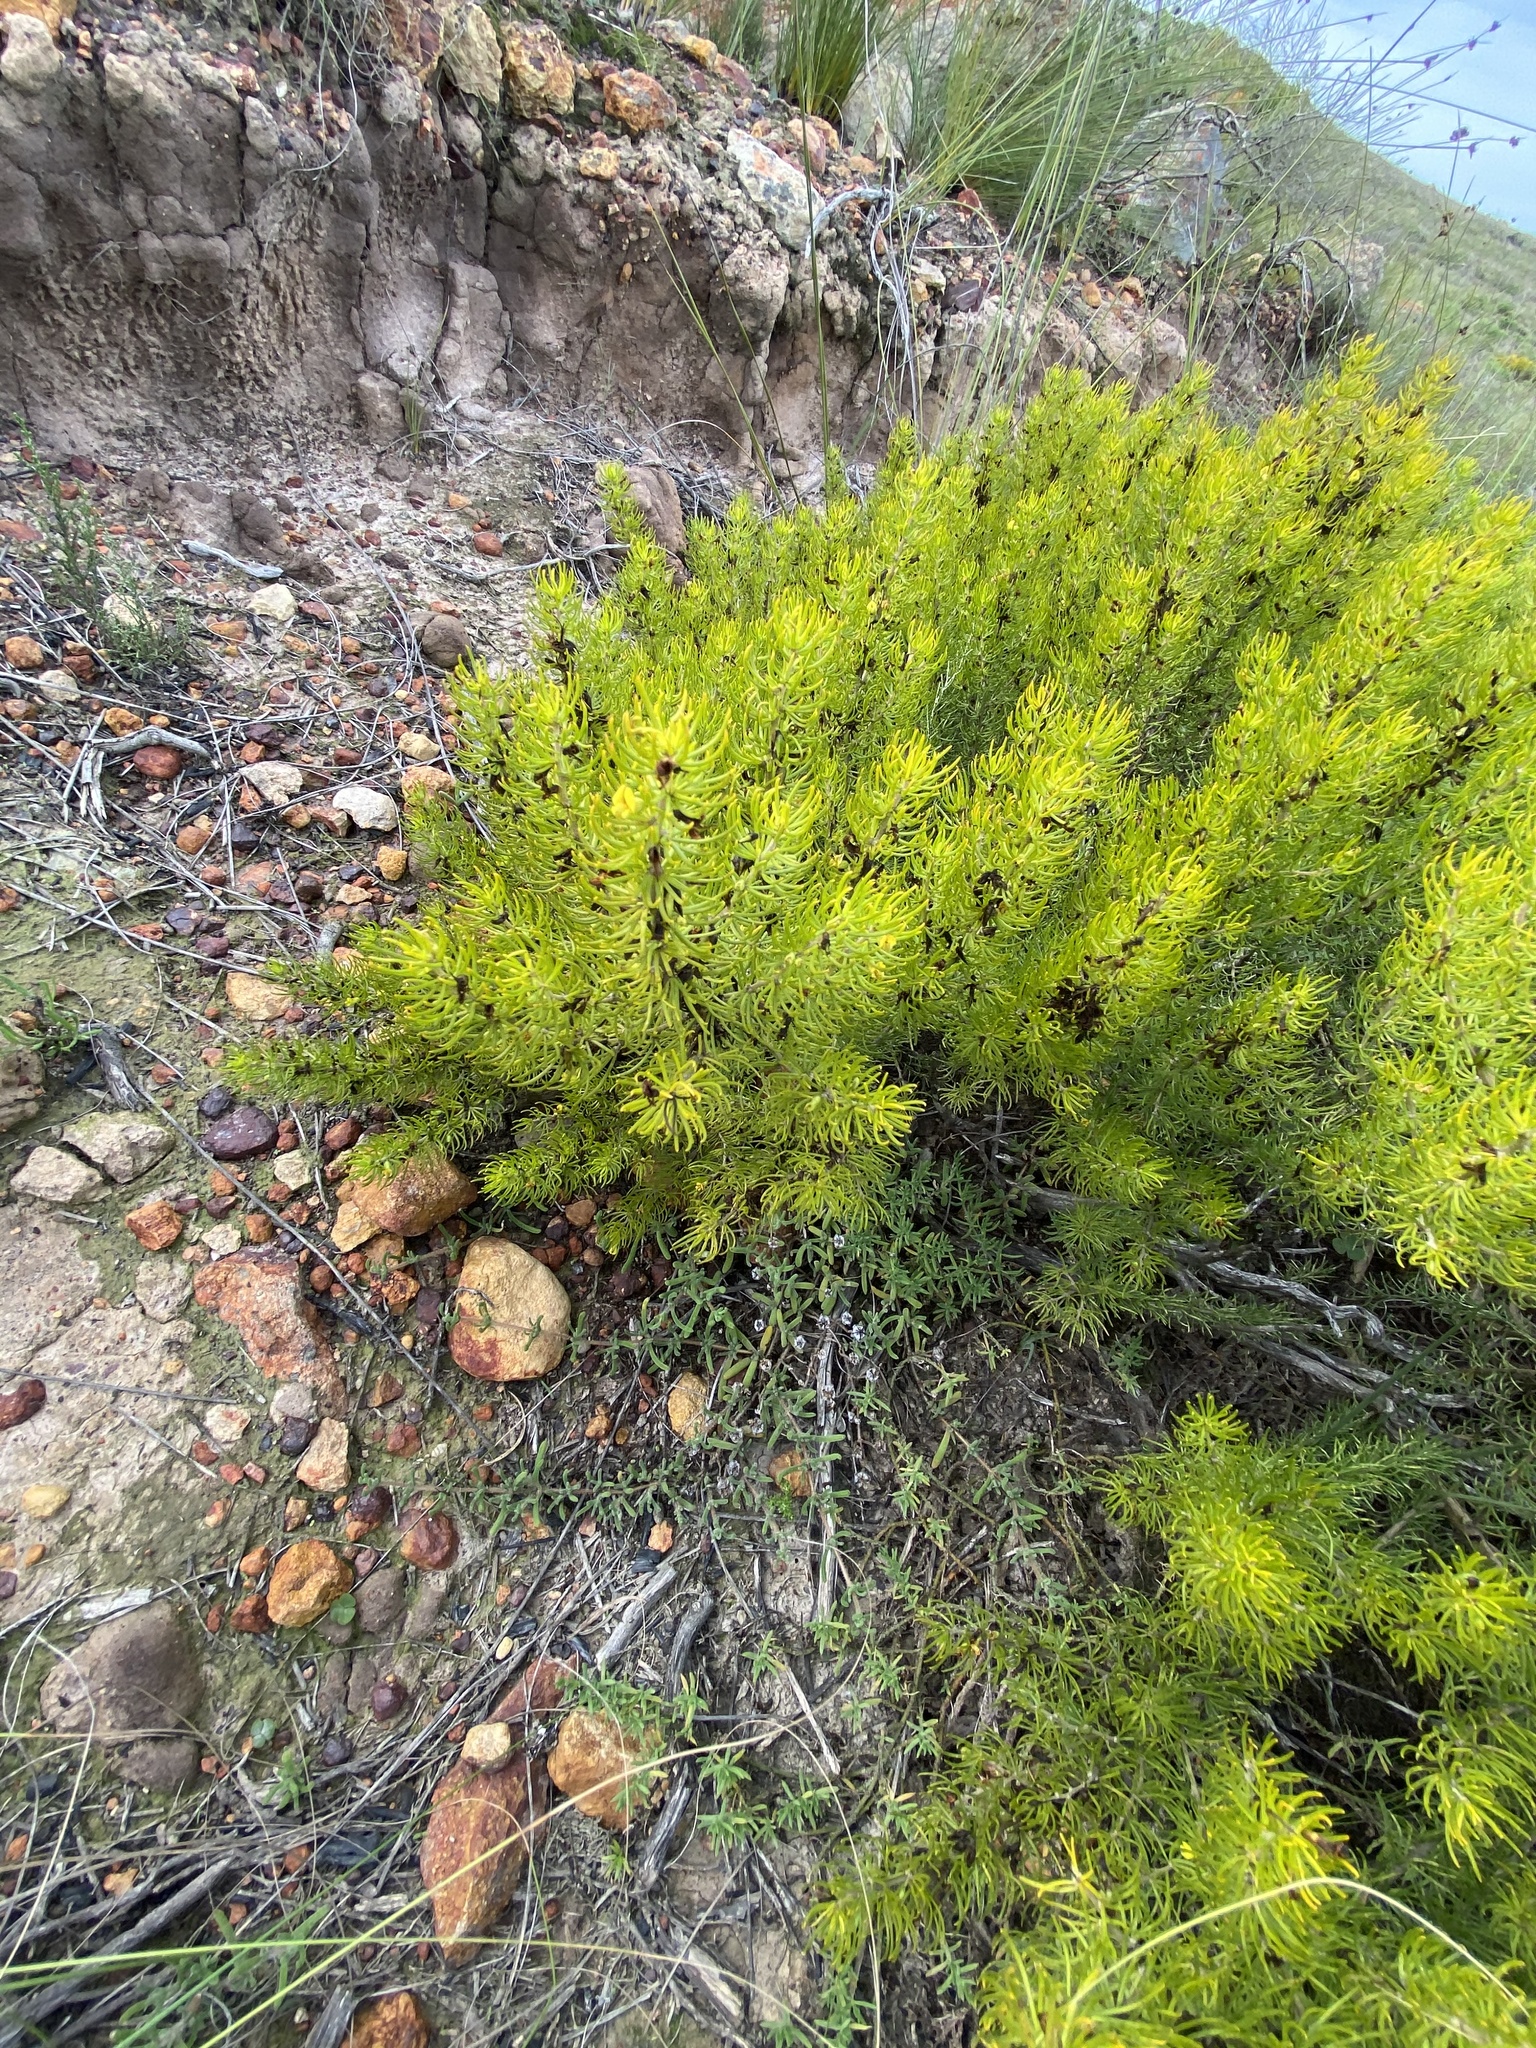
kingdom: Plantae
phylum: Tracheophyta
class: Magnoliopsida
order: Fabales
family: Fabaceae
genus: Aspalathus
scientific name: Aspalathus zeyheri
